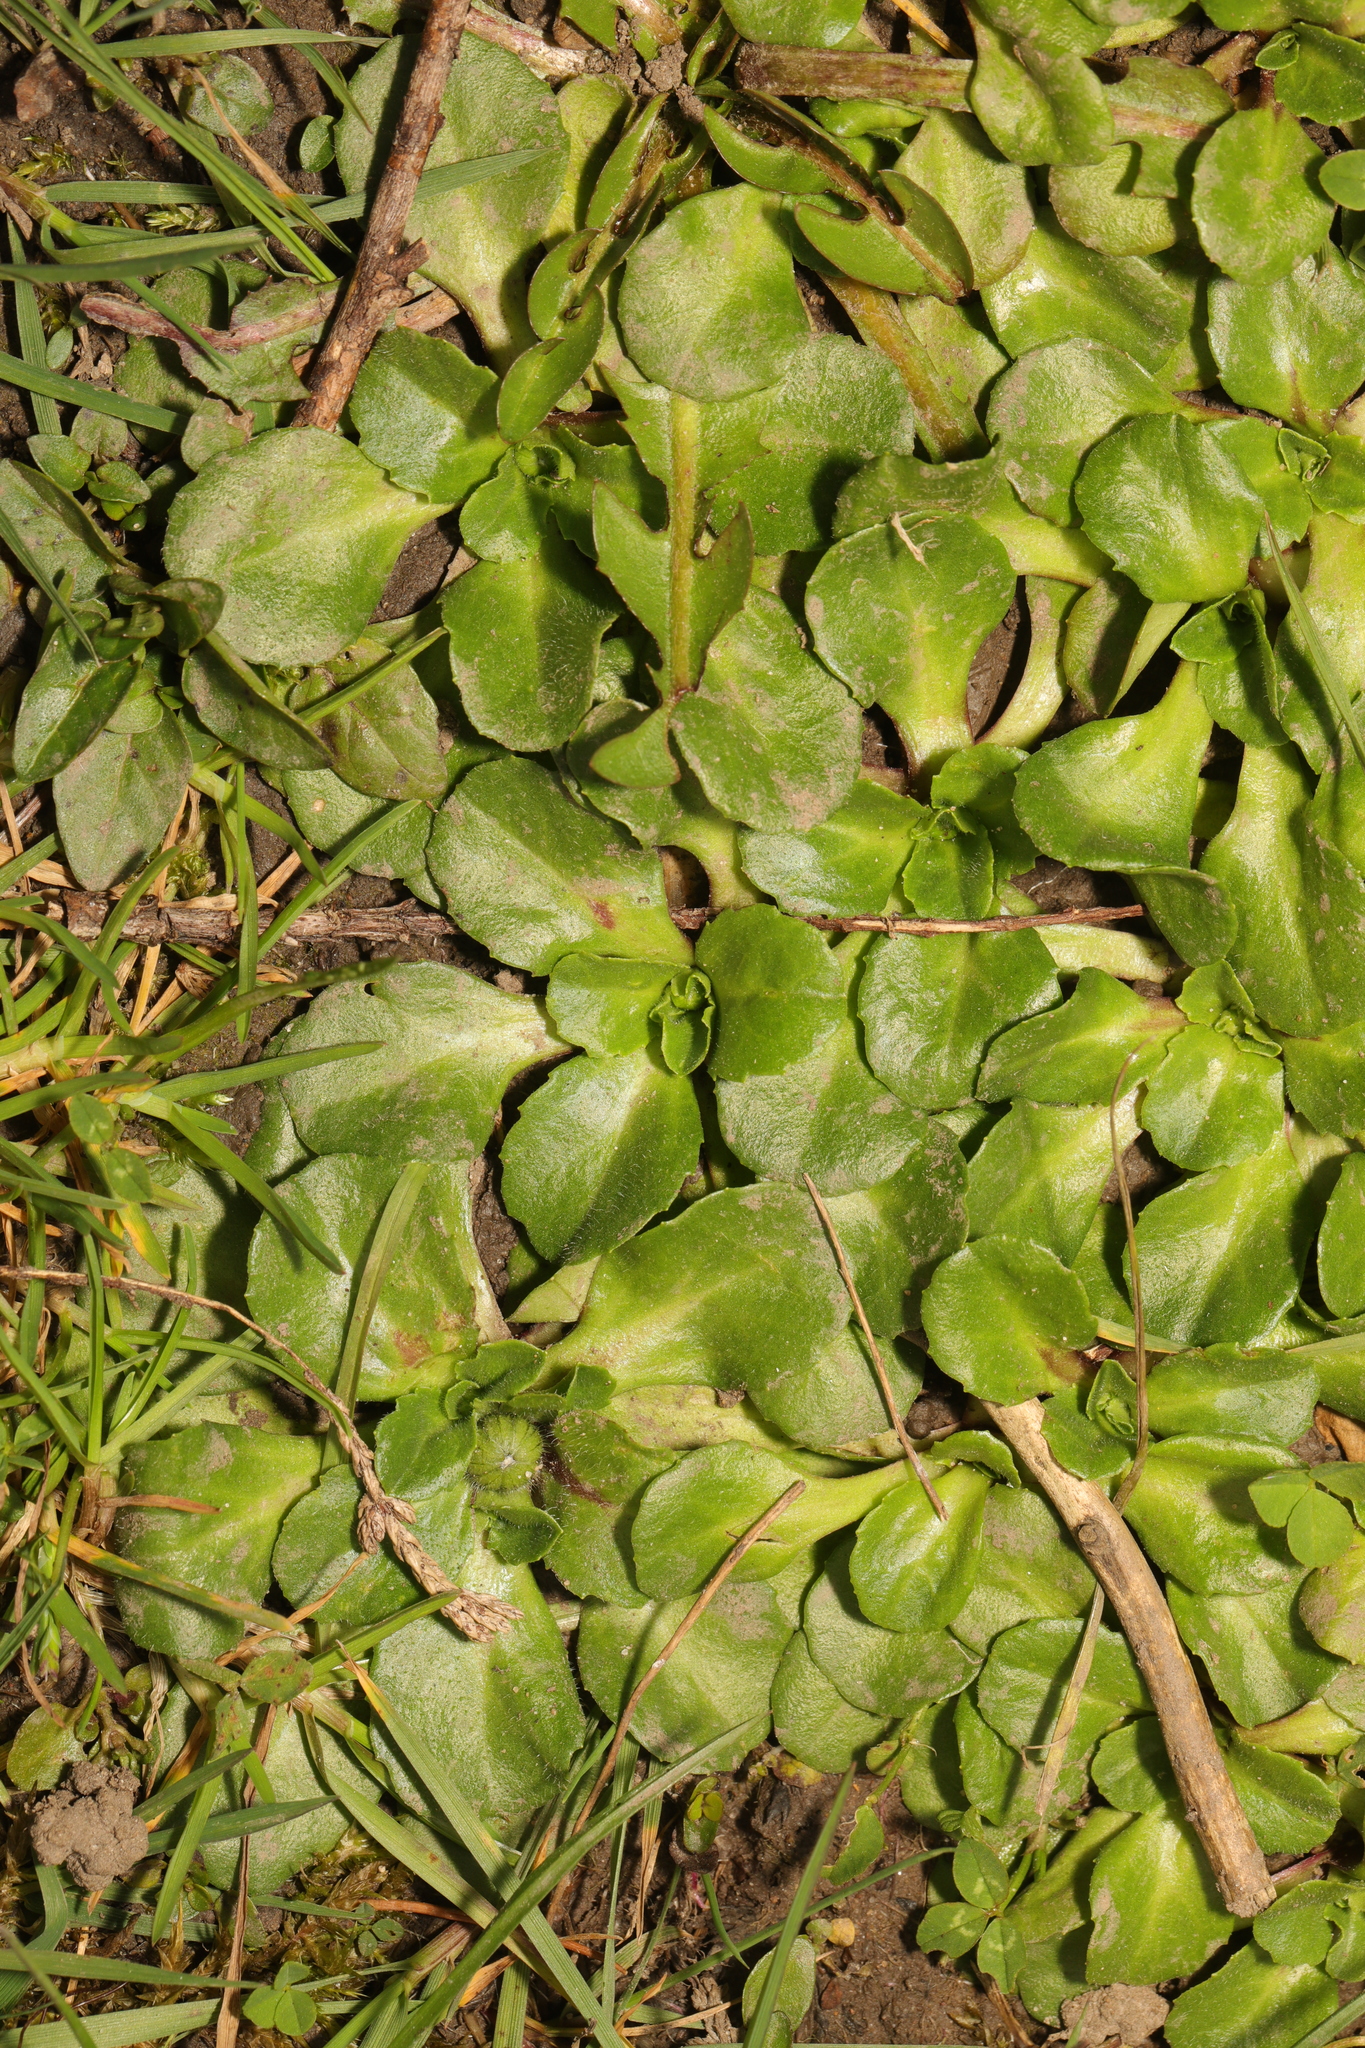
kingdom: Plantae
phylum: Tracheophyta
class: Magnoliopsida
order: Asterales
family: Asteraceae
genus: Bellis
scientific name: Bellis perennis
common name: Lawndaisy
